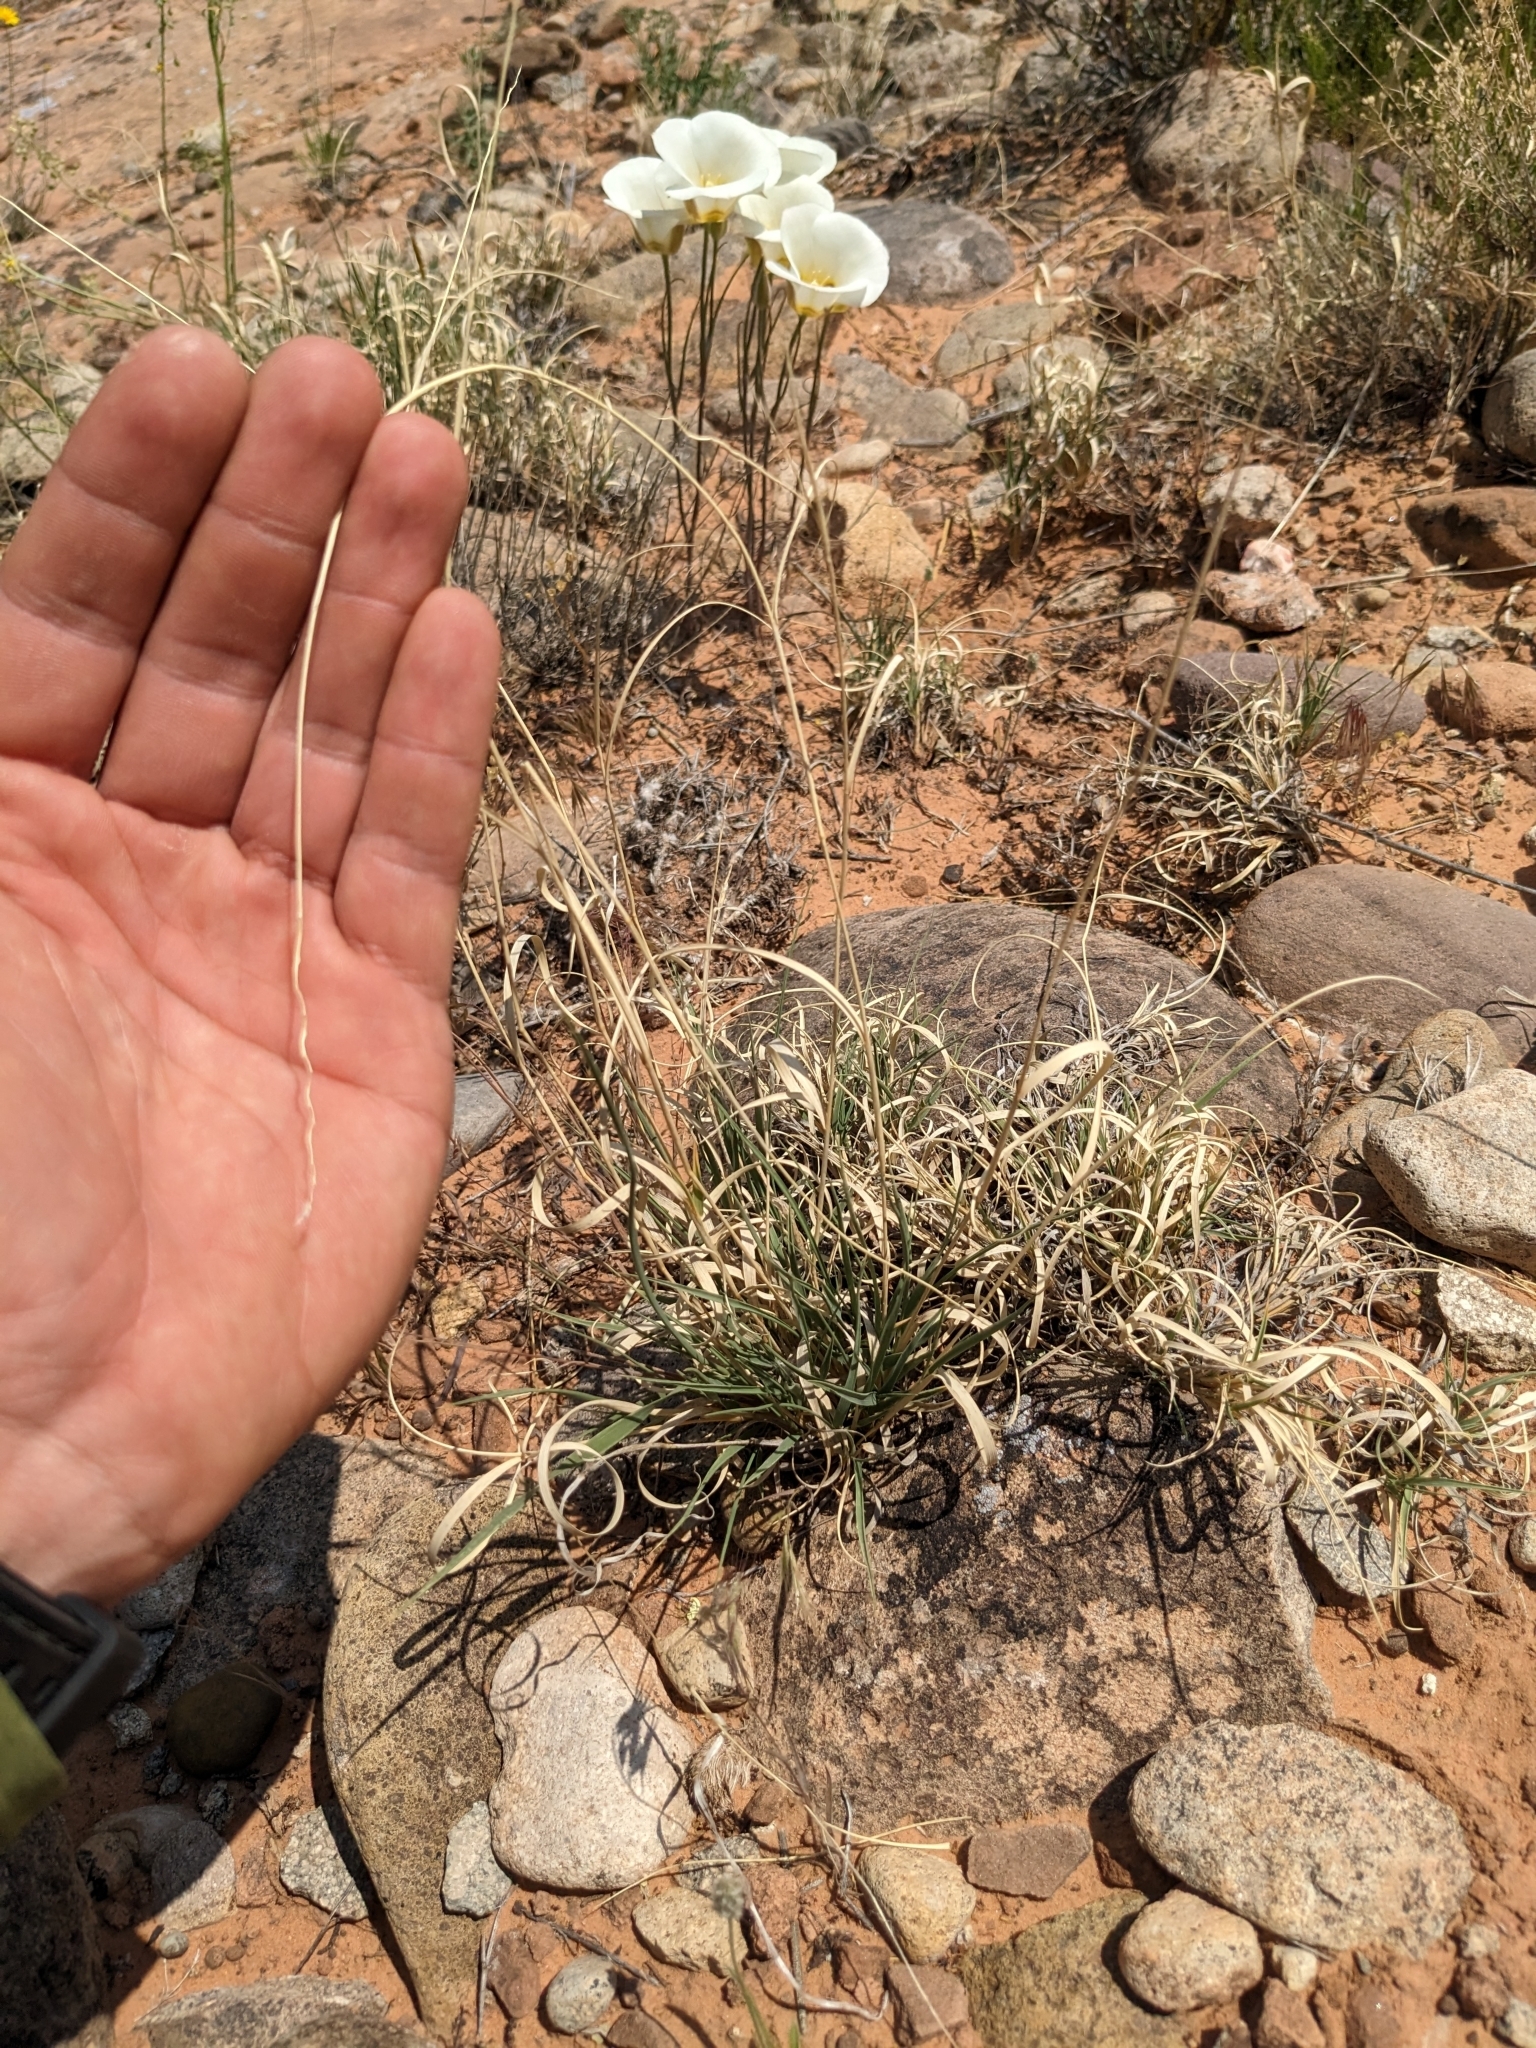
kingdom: Plantae
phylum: Tracheophyta
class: Liliopsida
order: Poales
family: Poaceae
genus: Hilaria
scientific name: Hilaria jamesii
